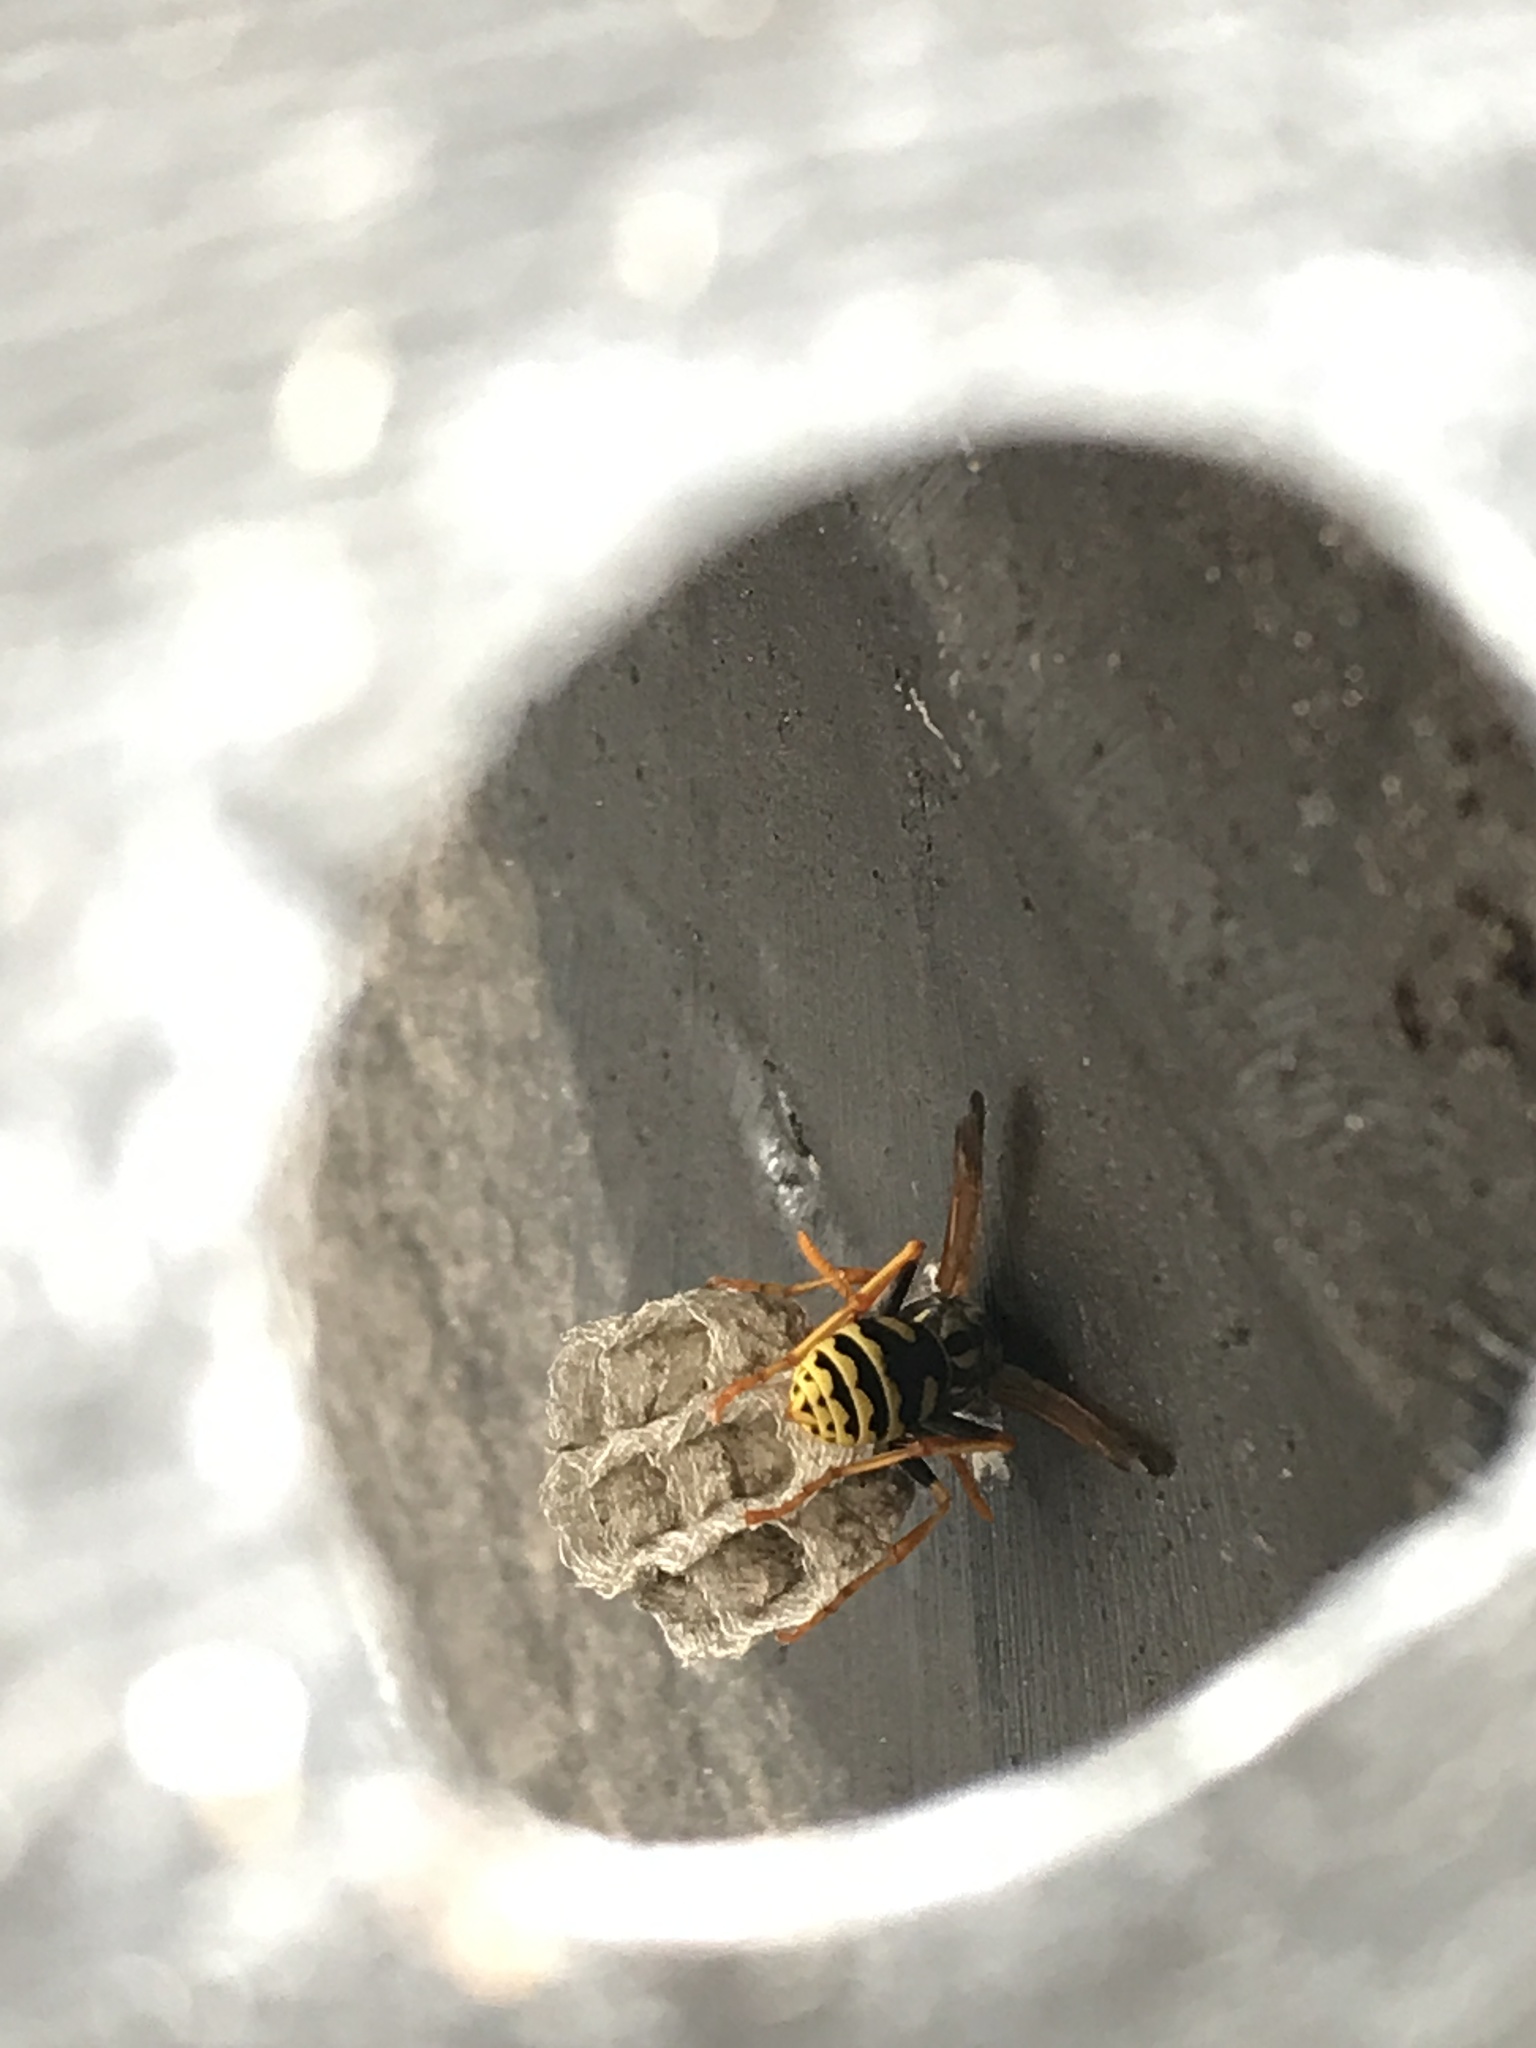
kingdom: Animalia
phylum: Arthropoda
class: Insecta
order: Hymenoptera
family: Eumenidae
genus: Polistes
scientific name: Polistes dominula
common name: Paper wasp
